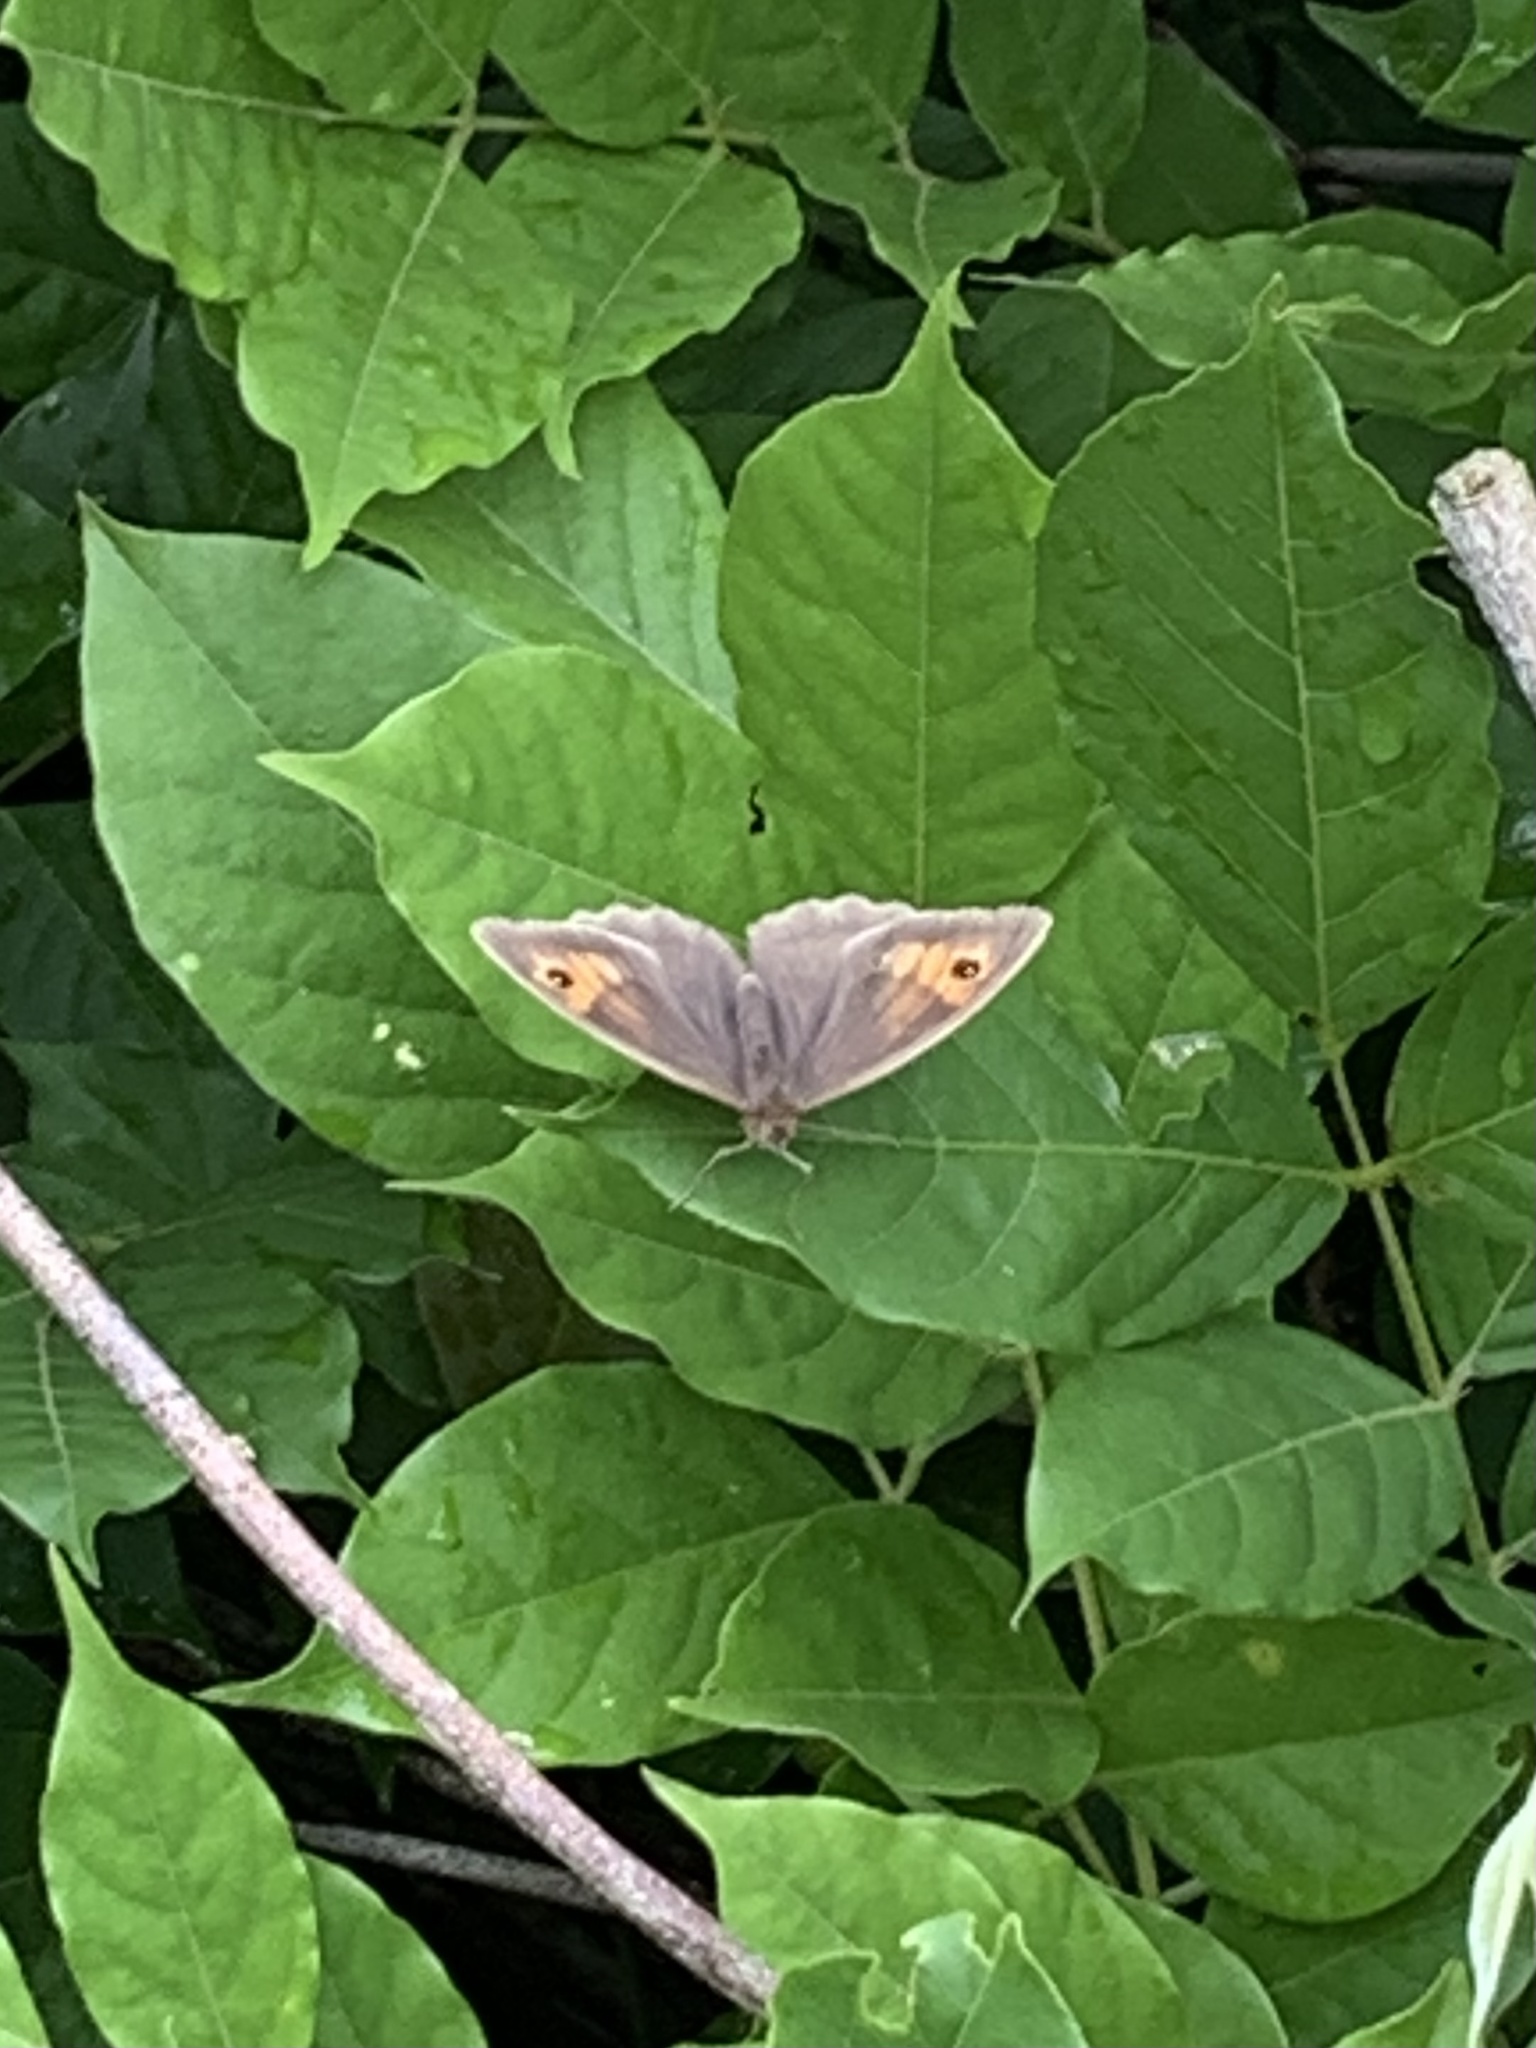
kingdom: Animalia
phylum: Arthropoda
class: Insecta
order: Lepidoptera
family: Nymphalidae
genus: Maniola
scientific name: Maniola jurtina
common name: Meadow brown
